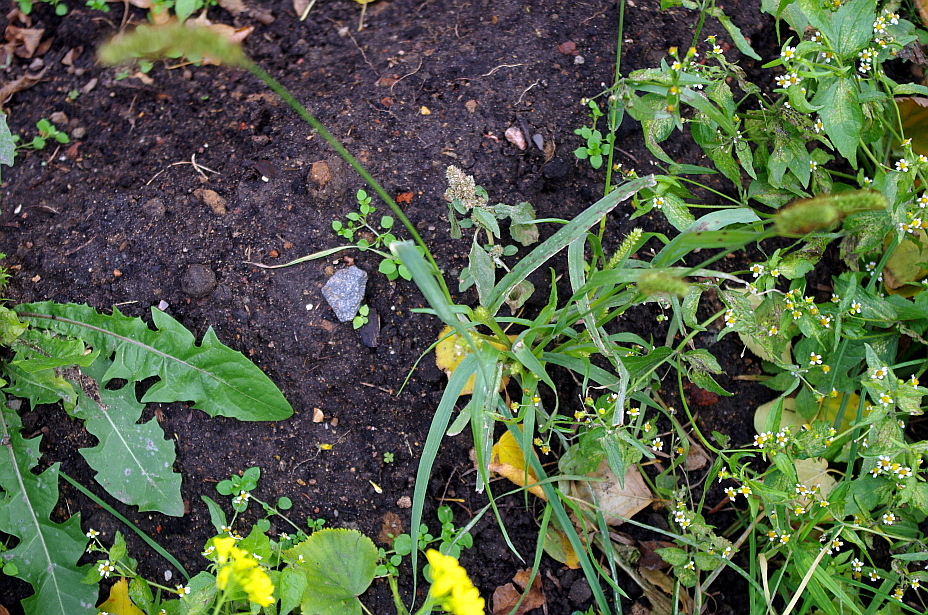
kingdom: Plantae
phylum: Tracheophyta
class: Liliopsida
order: Poales
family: Poaceae
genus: Setaria
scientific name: Setaria pumila
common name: Yellow bristle-grass
